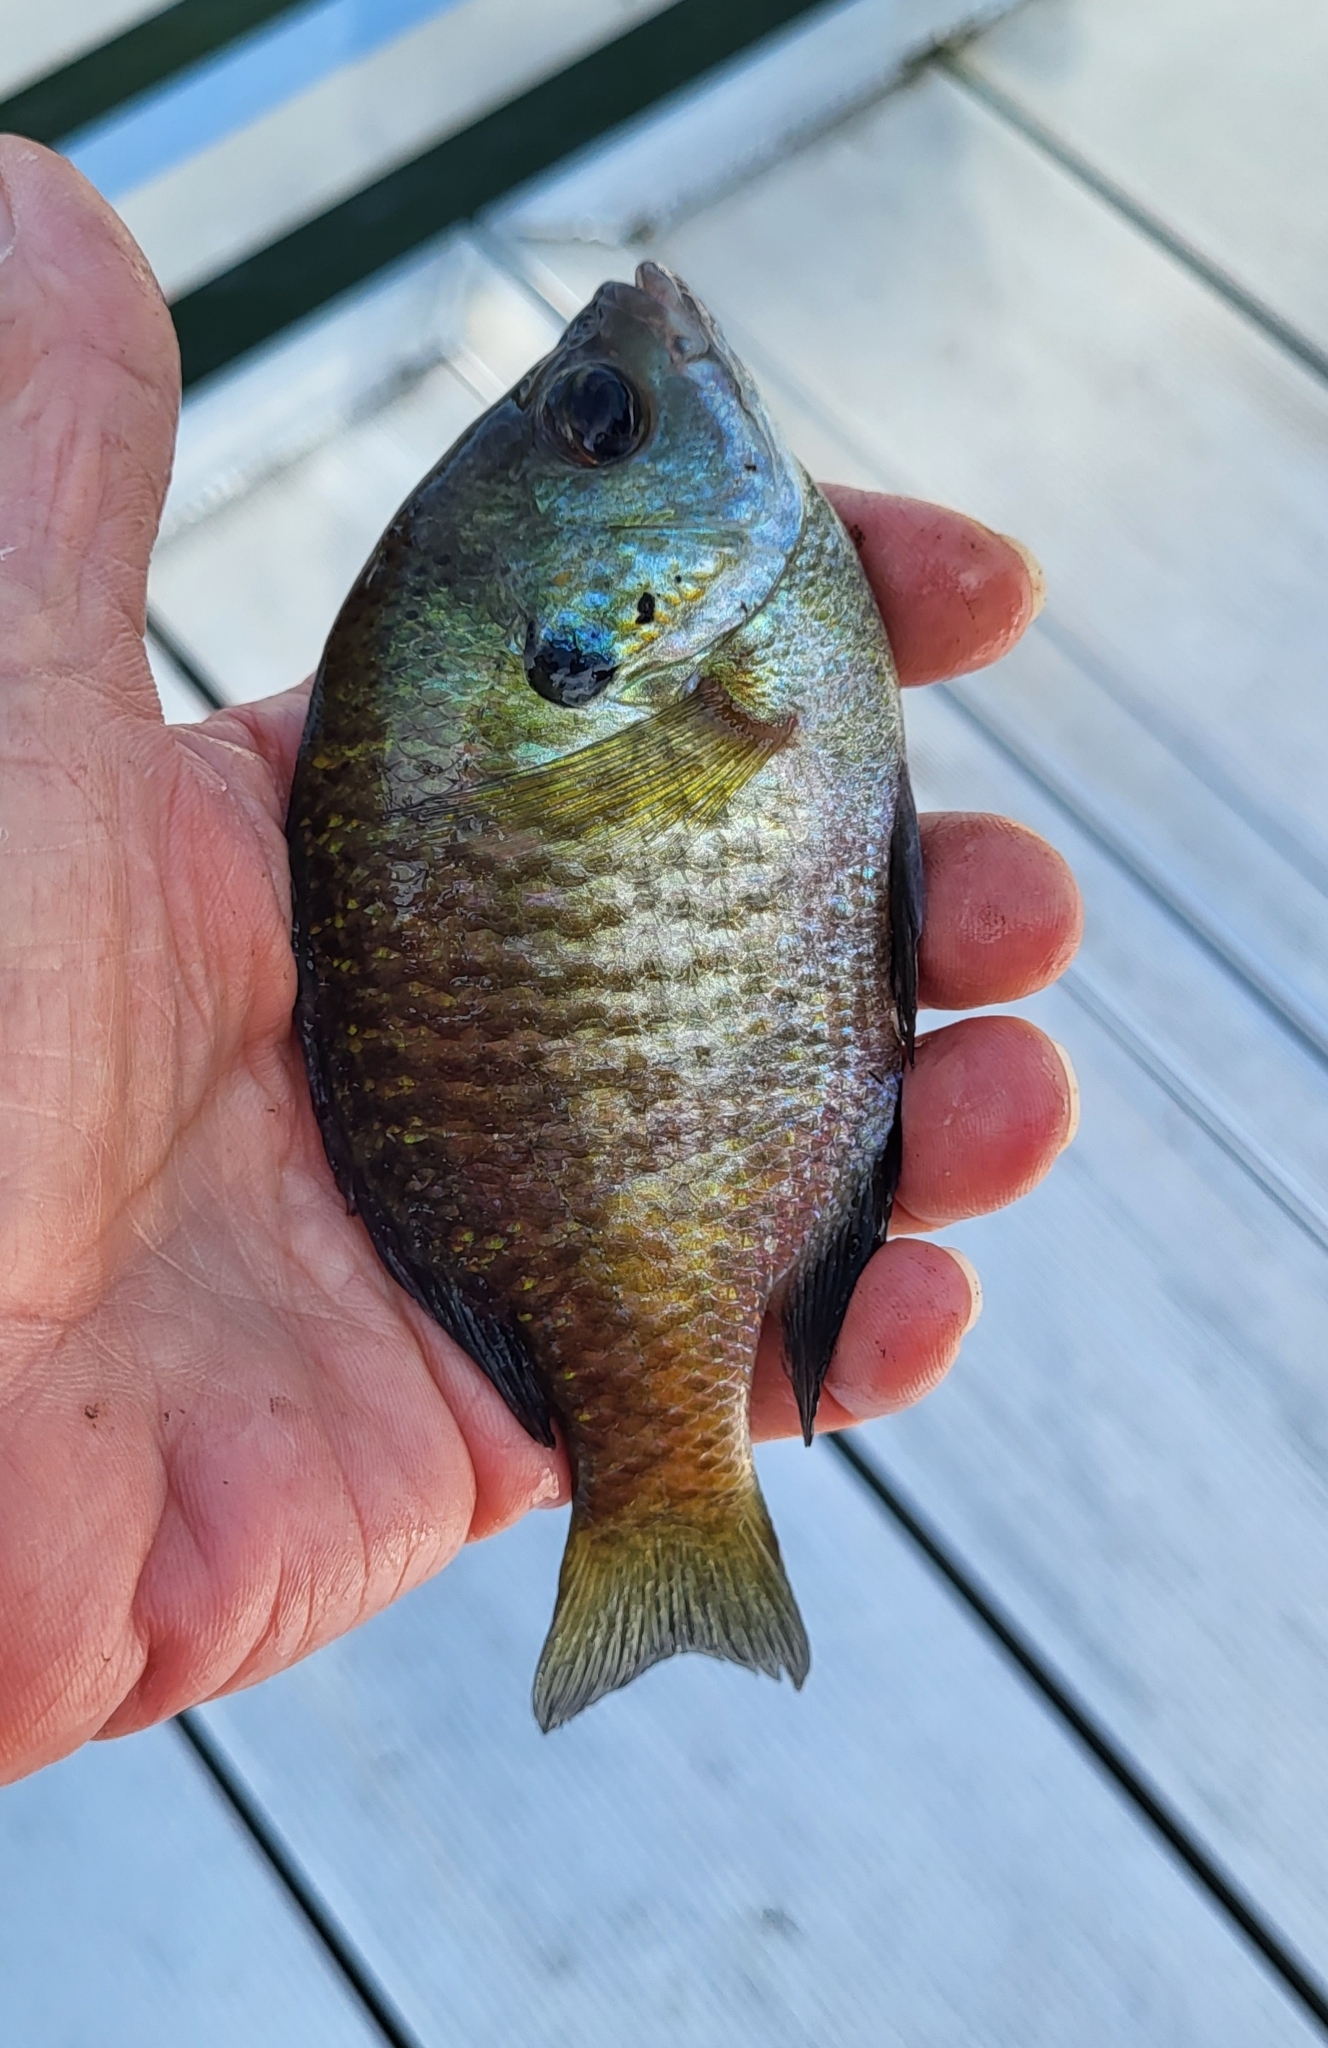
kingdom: Animalia
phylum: Chordata
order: Perciformes
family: Centrarchidae
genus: Lepomis
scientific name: Lepomis macrochirus
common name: Bluegill
